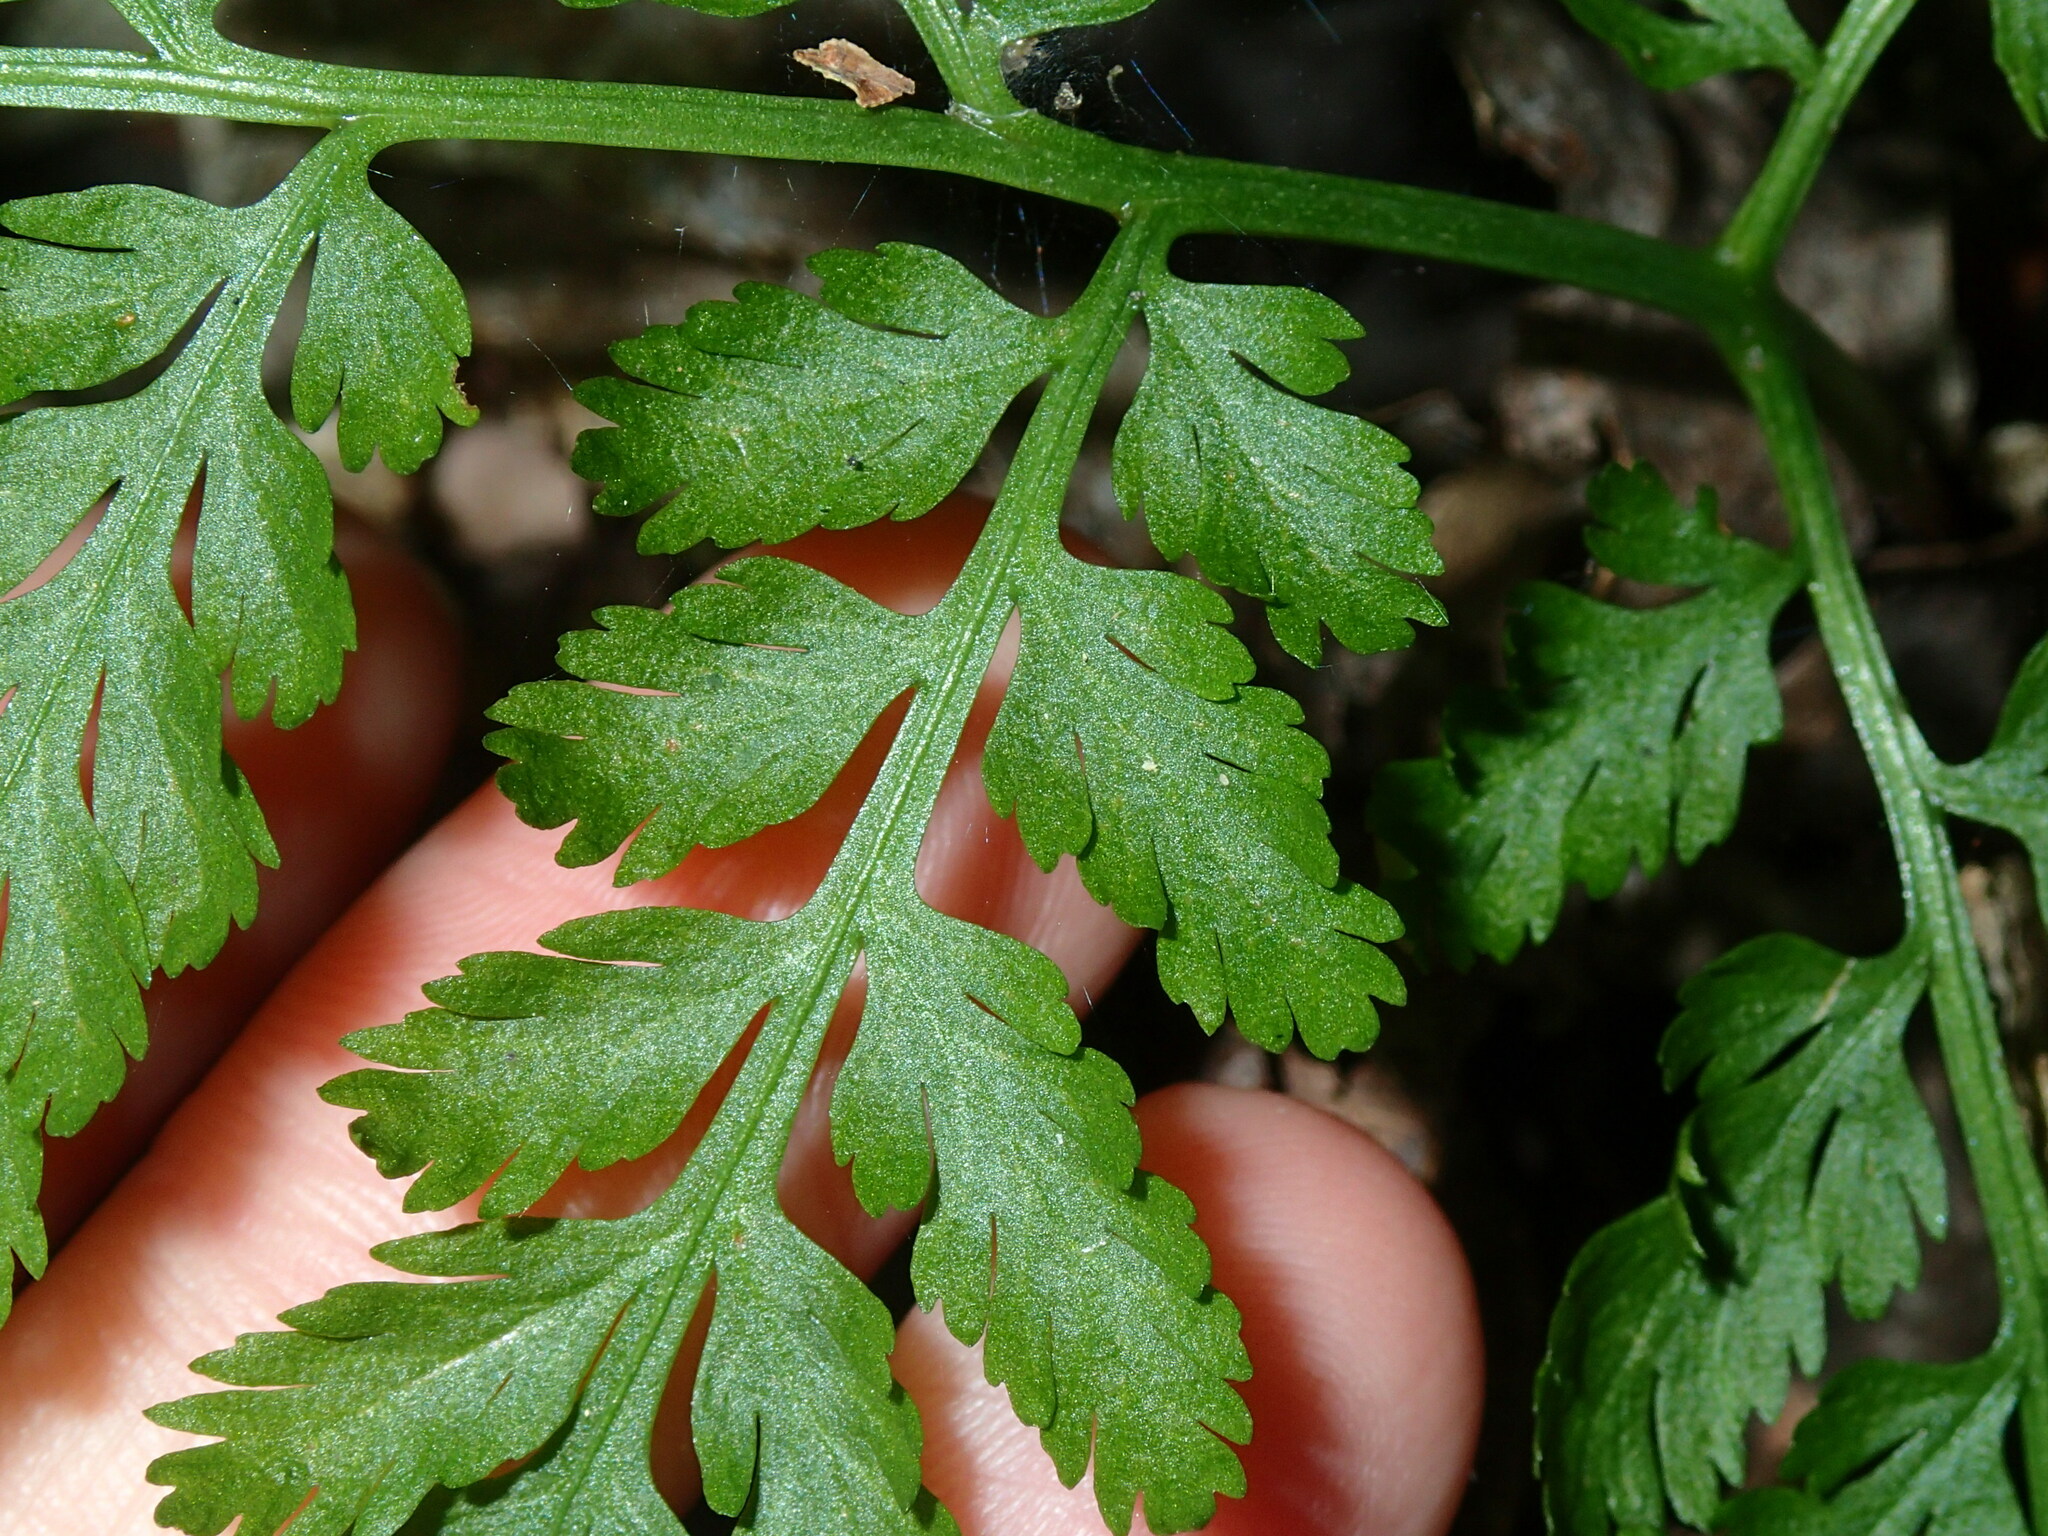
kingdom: Plantae
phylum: Tracheophyta
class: Polypodiopsida
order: Ophioglossales
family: Ophioglossaceae
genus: Botrypus
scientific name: Botrypus virginianus
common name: Common grapefern
